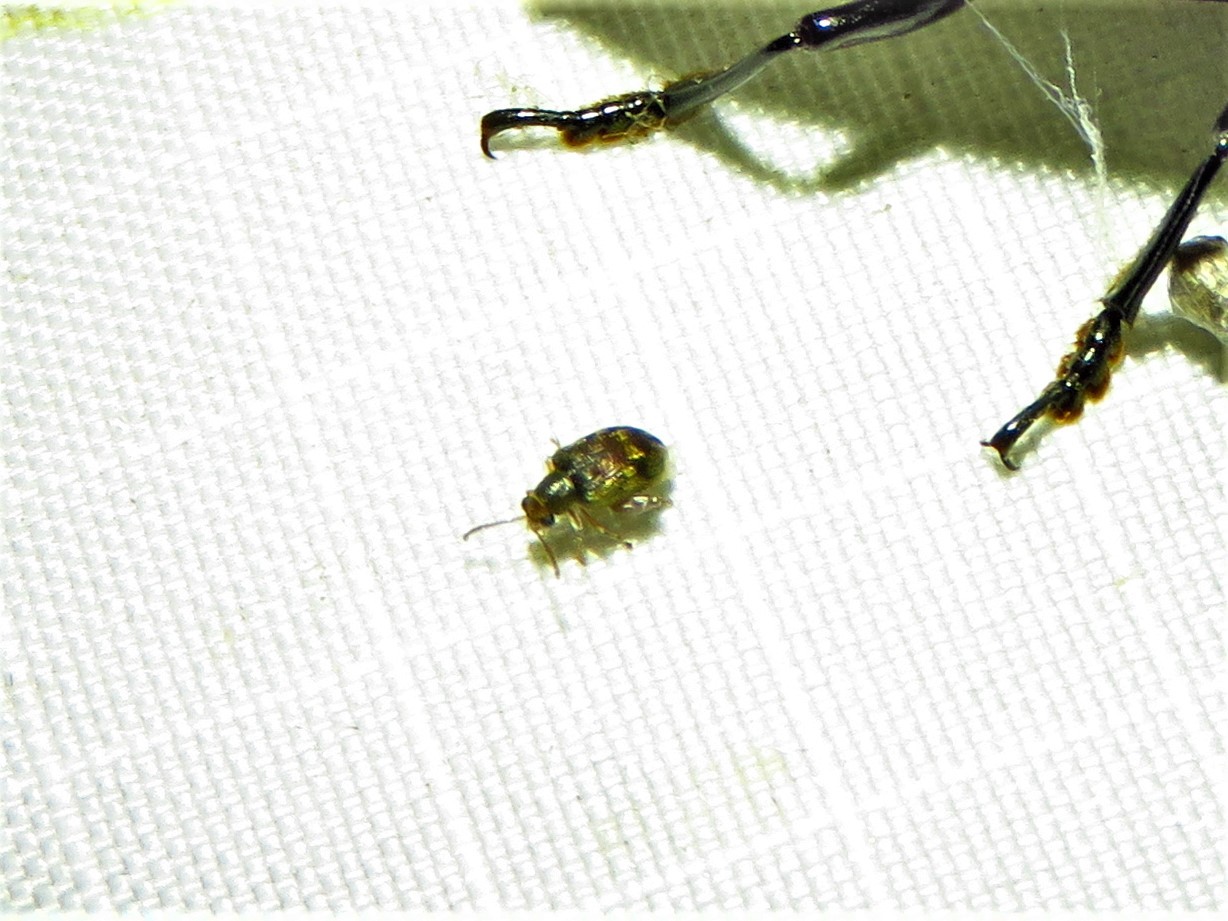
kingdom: Animalia
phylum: Arthropoda
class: Insecta
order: Coleoptera
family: Chrysomelidae
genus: Pseudolampis
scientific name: Pseudolampis guttata
